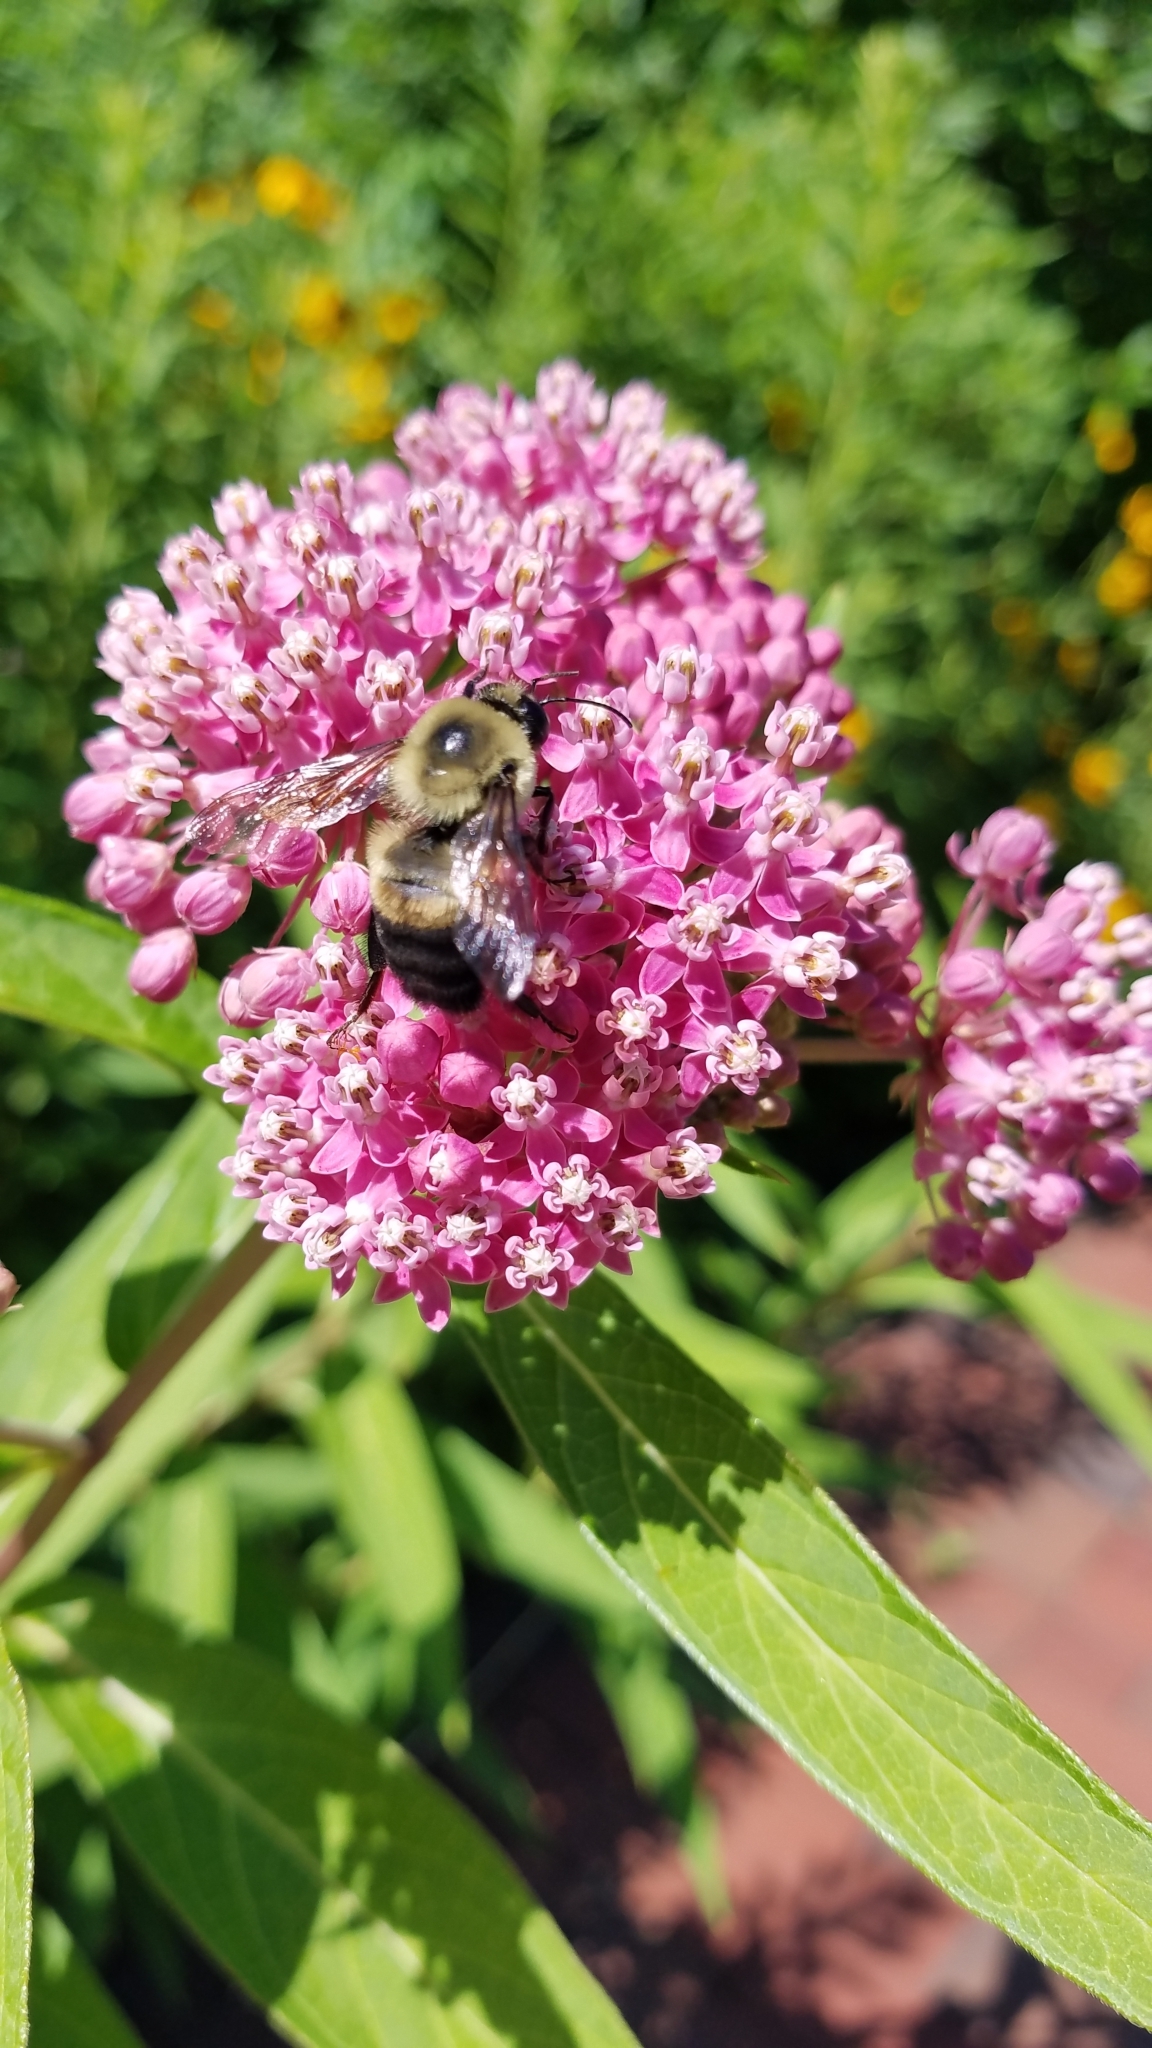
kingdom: Animalia
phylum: Arthropoda
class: Insecta
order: Hymenoptera
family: Apidae
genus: Bombus
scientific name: Bombus griseocollis
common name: Brown-belted bumble bee
